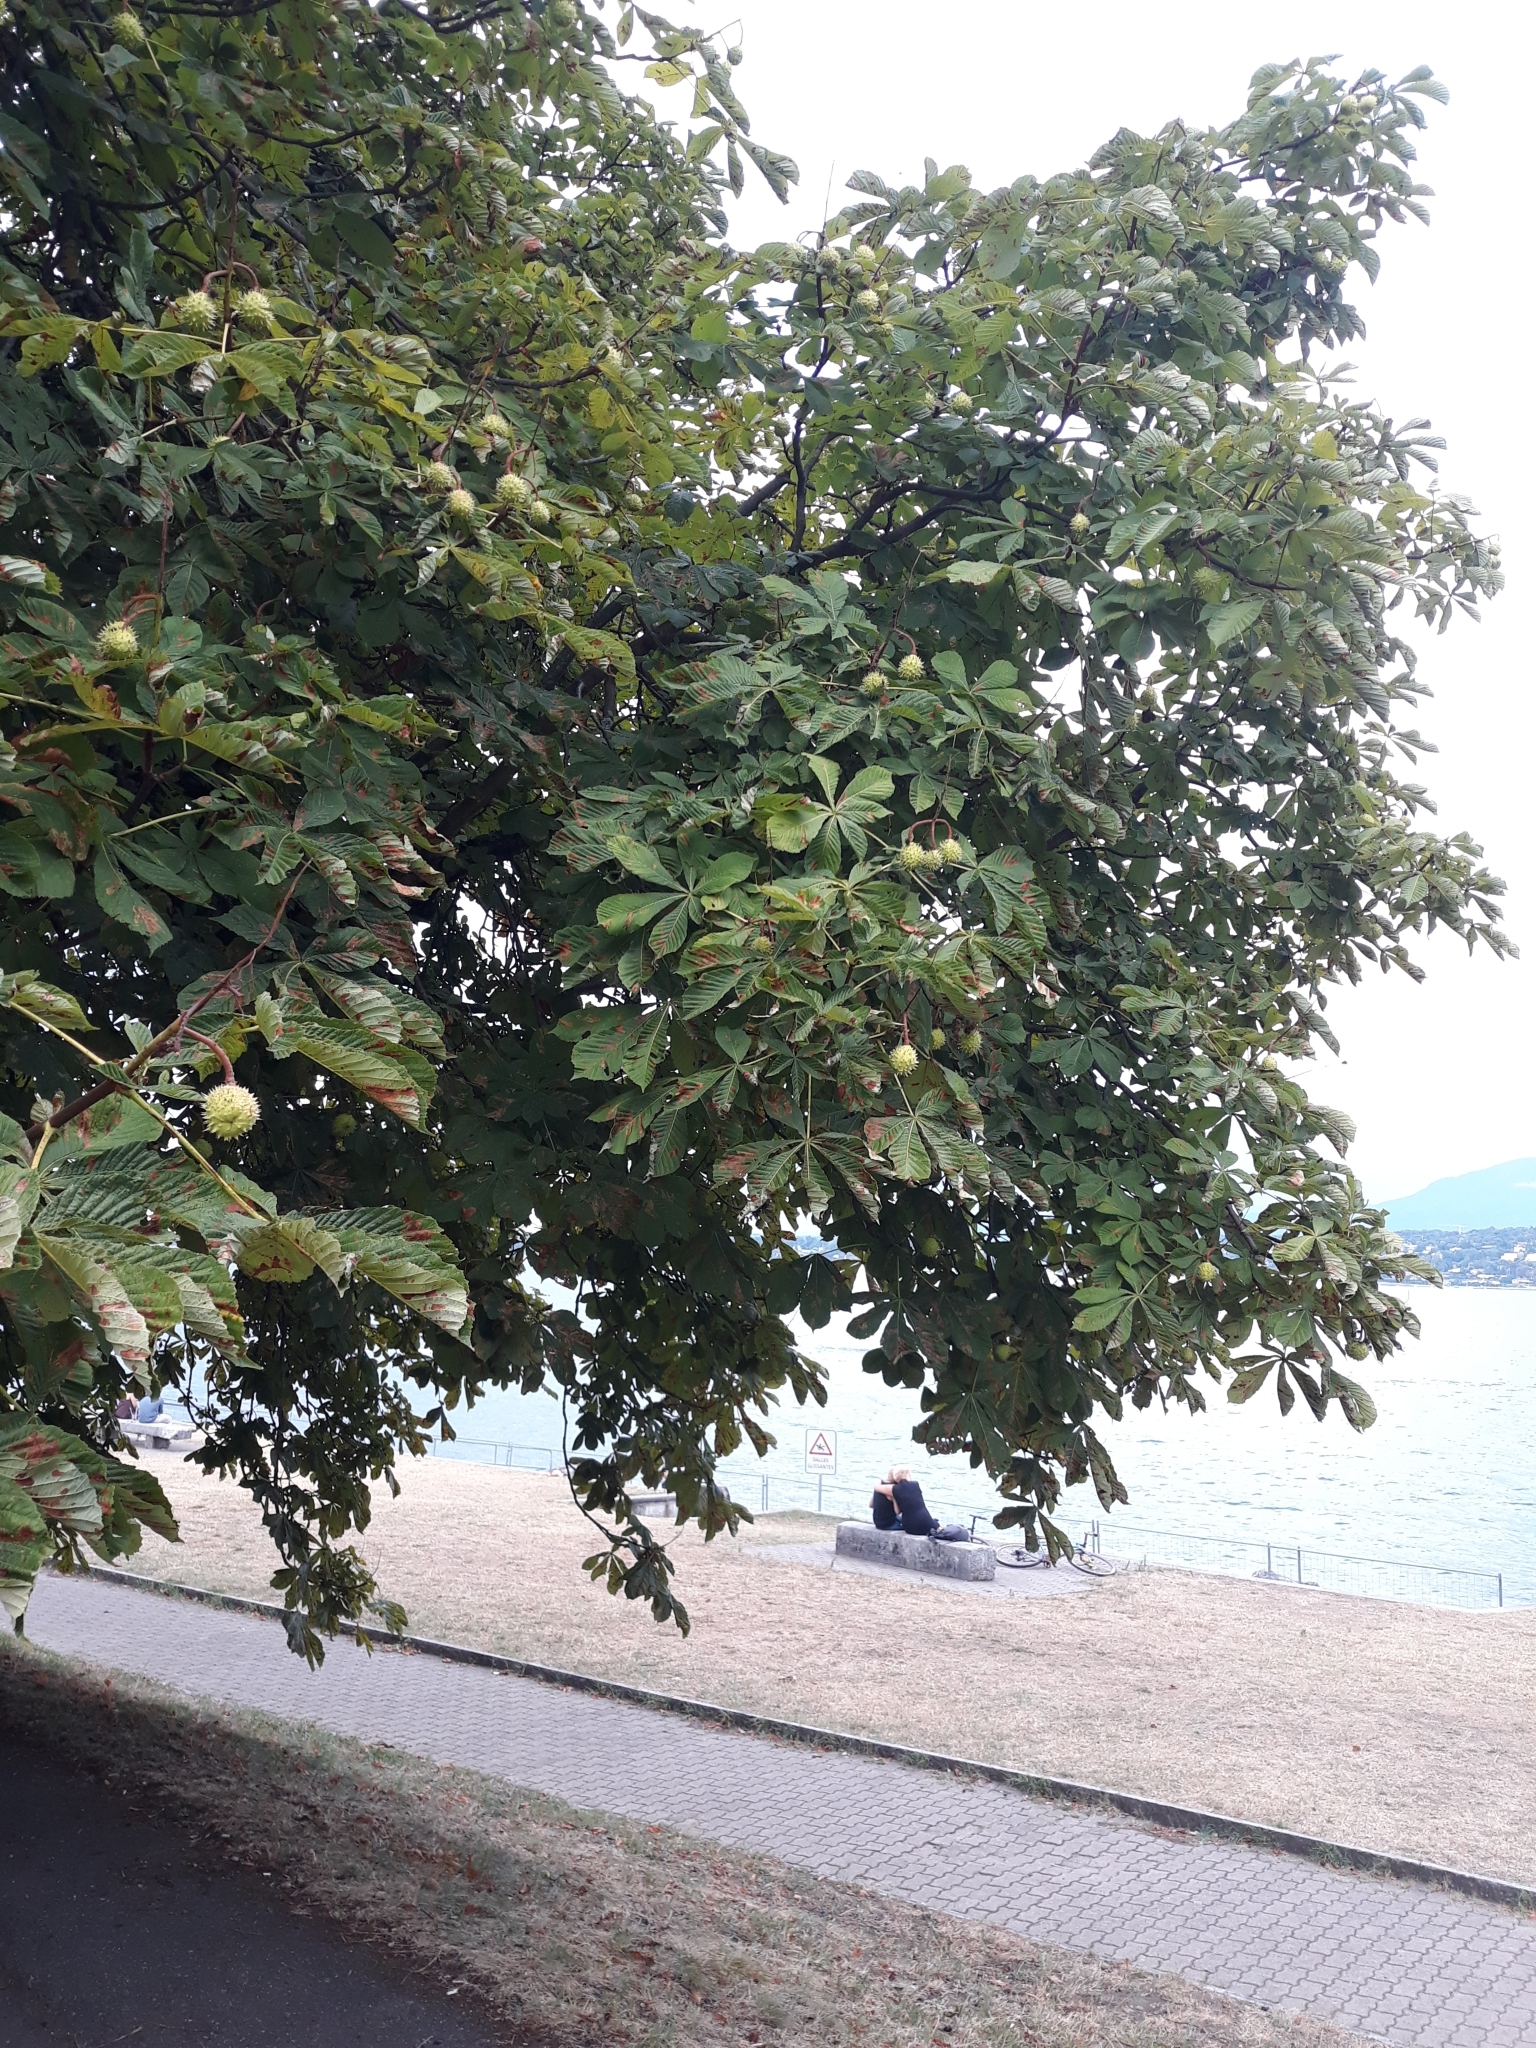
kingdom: Plantae
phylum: Tracheophyta
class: Magnoliopsida
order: Sapindales
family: Sapindaceae
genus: Aesculus
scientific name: Aesculus hippocastanum
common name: Horse-chestnut
